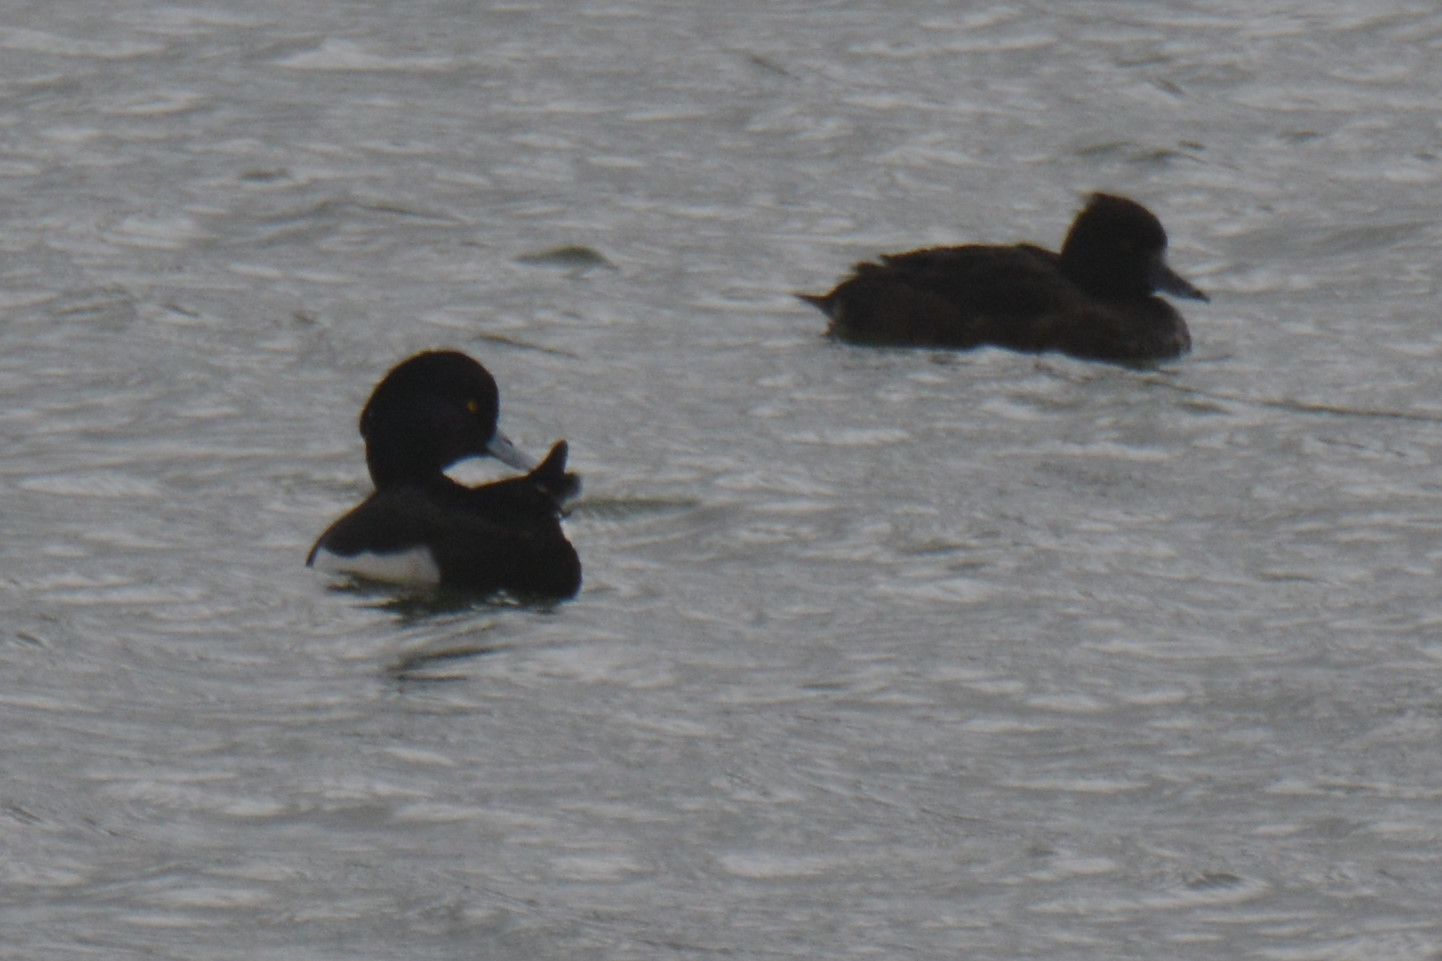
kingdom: Animalia
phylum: Chordata
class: Aves
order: Anseriformes
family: Anatidae
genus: Aythya
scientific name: Aythya fuligula
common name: Tufted duck
